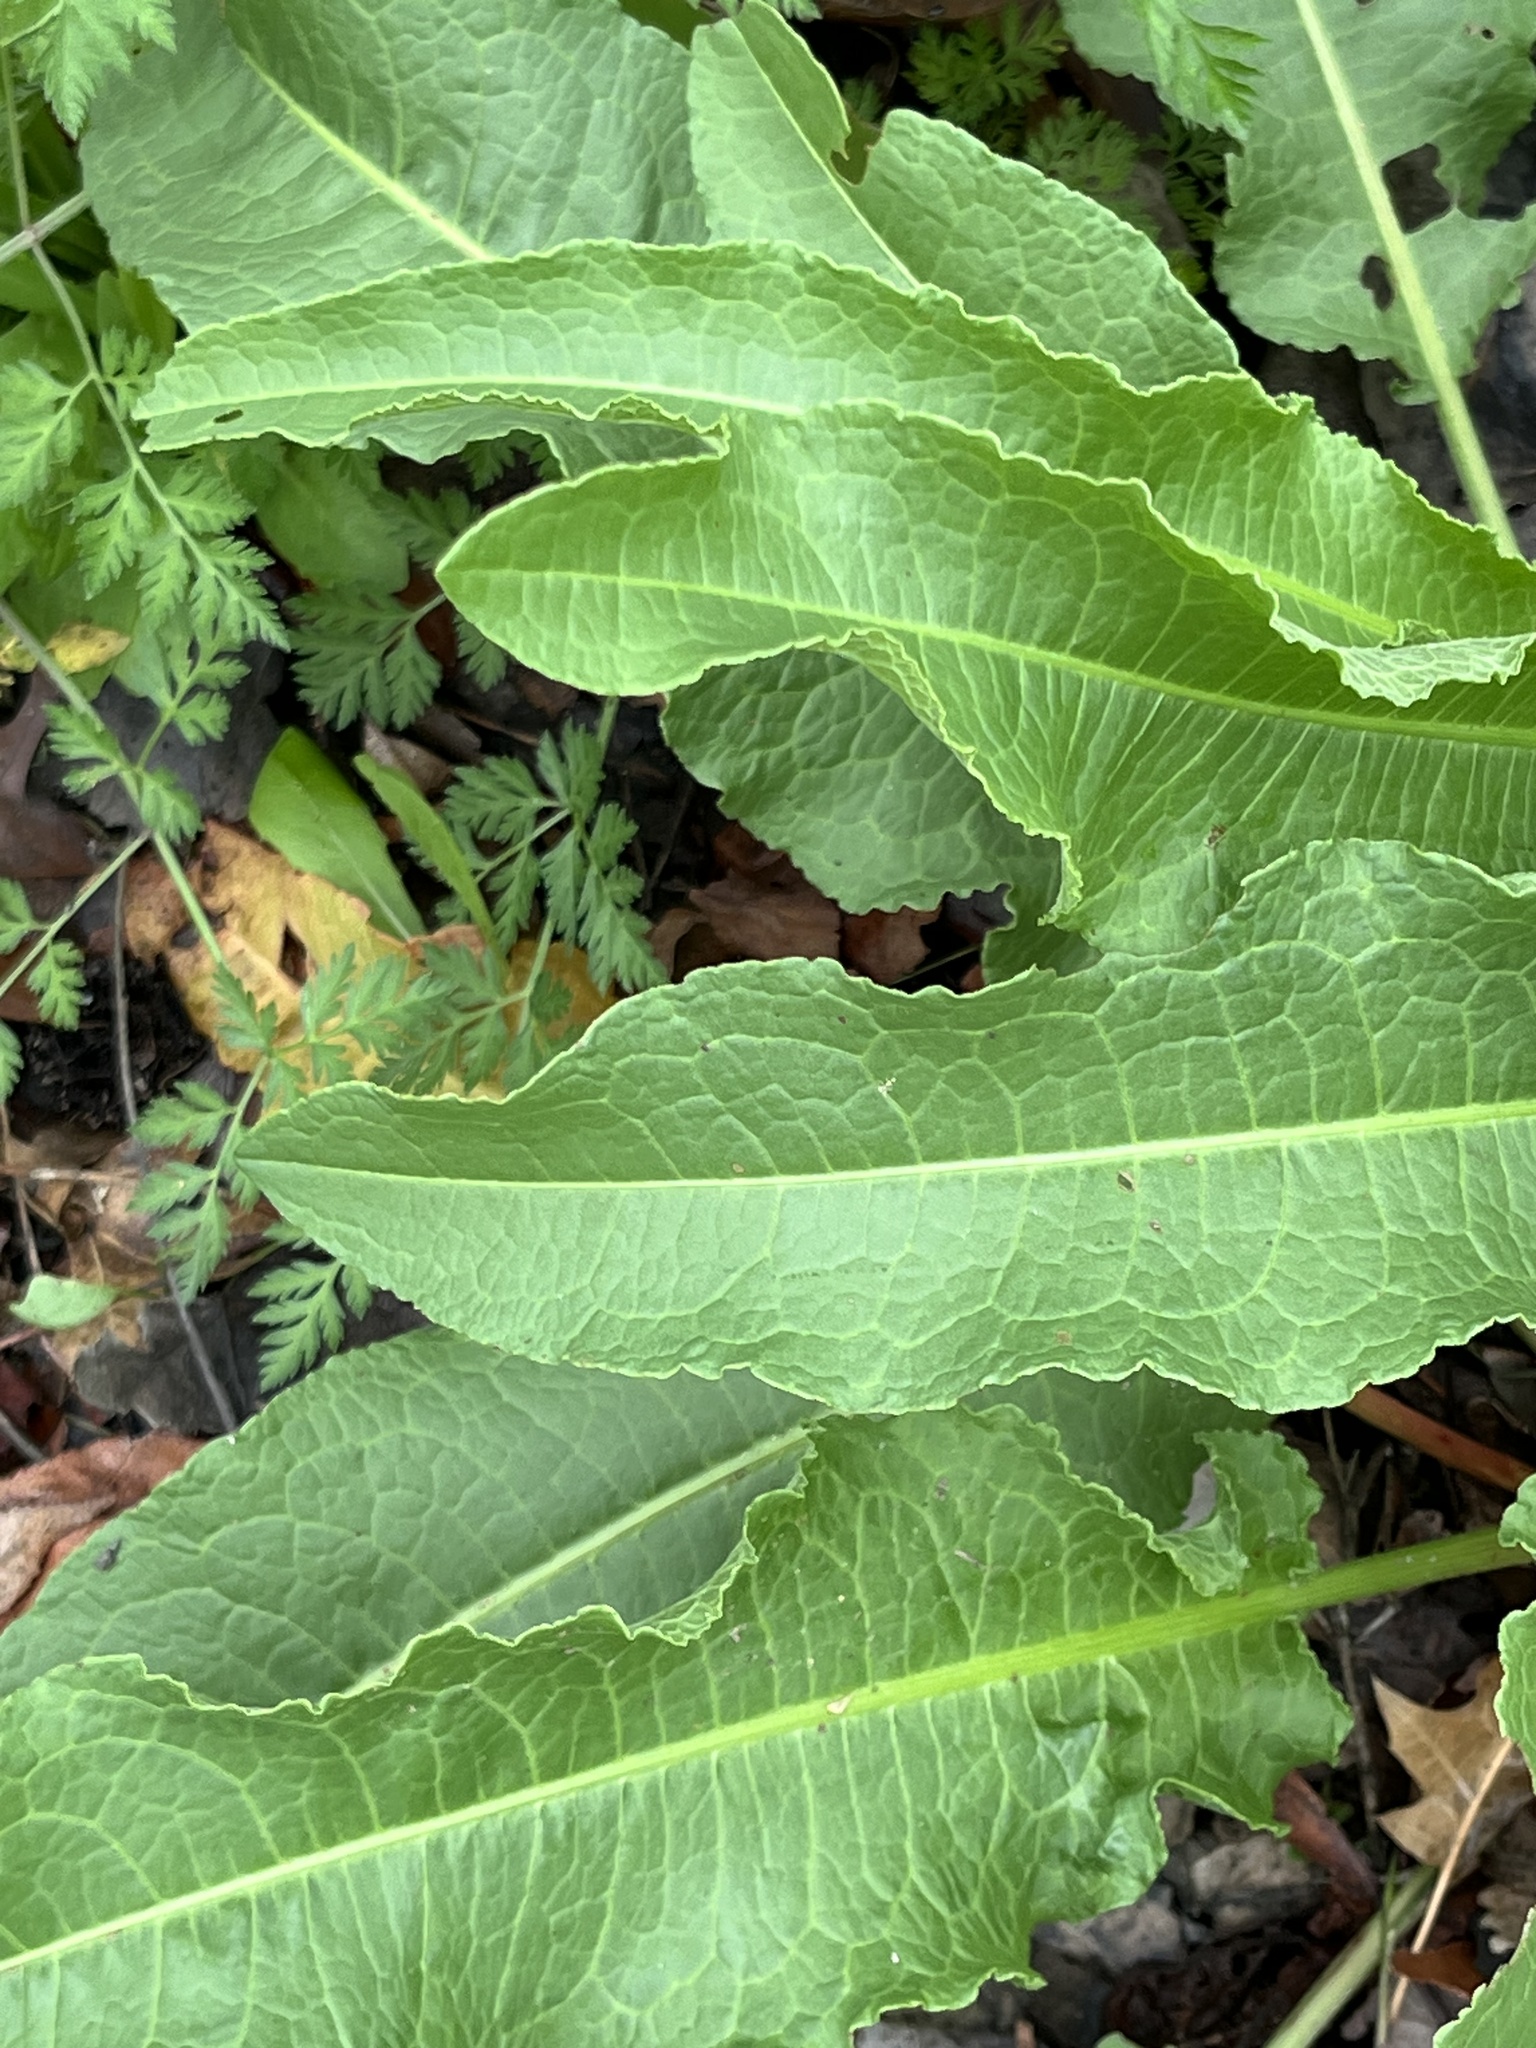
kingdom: Plantae
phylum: Tracheophyta
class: Magnoliopsida
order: Caryophyllales
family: Polygonaceae
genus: Rumex
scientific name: Rumex crispus
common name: Curled dock
